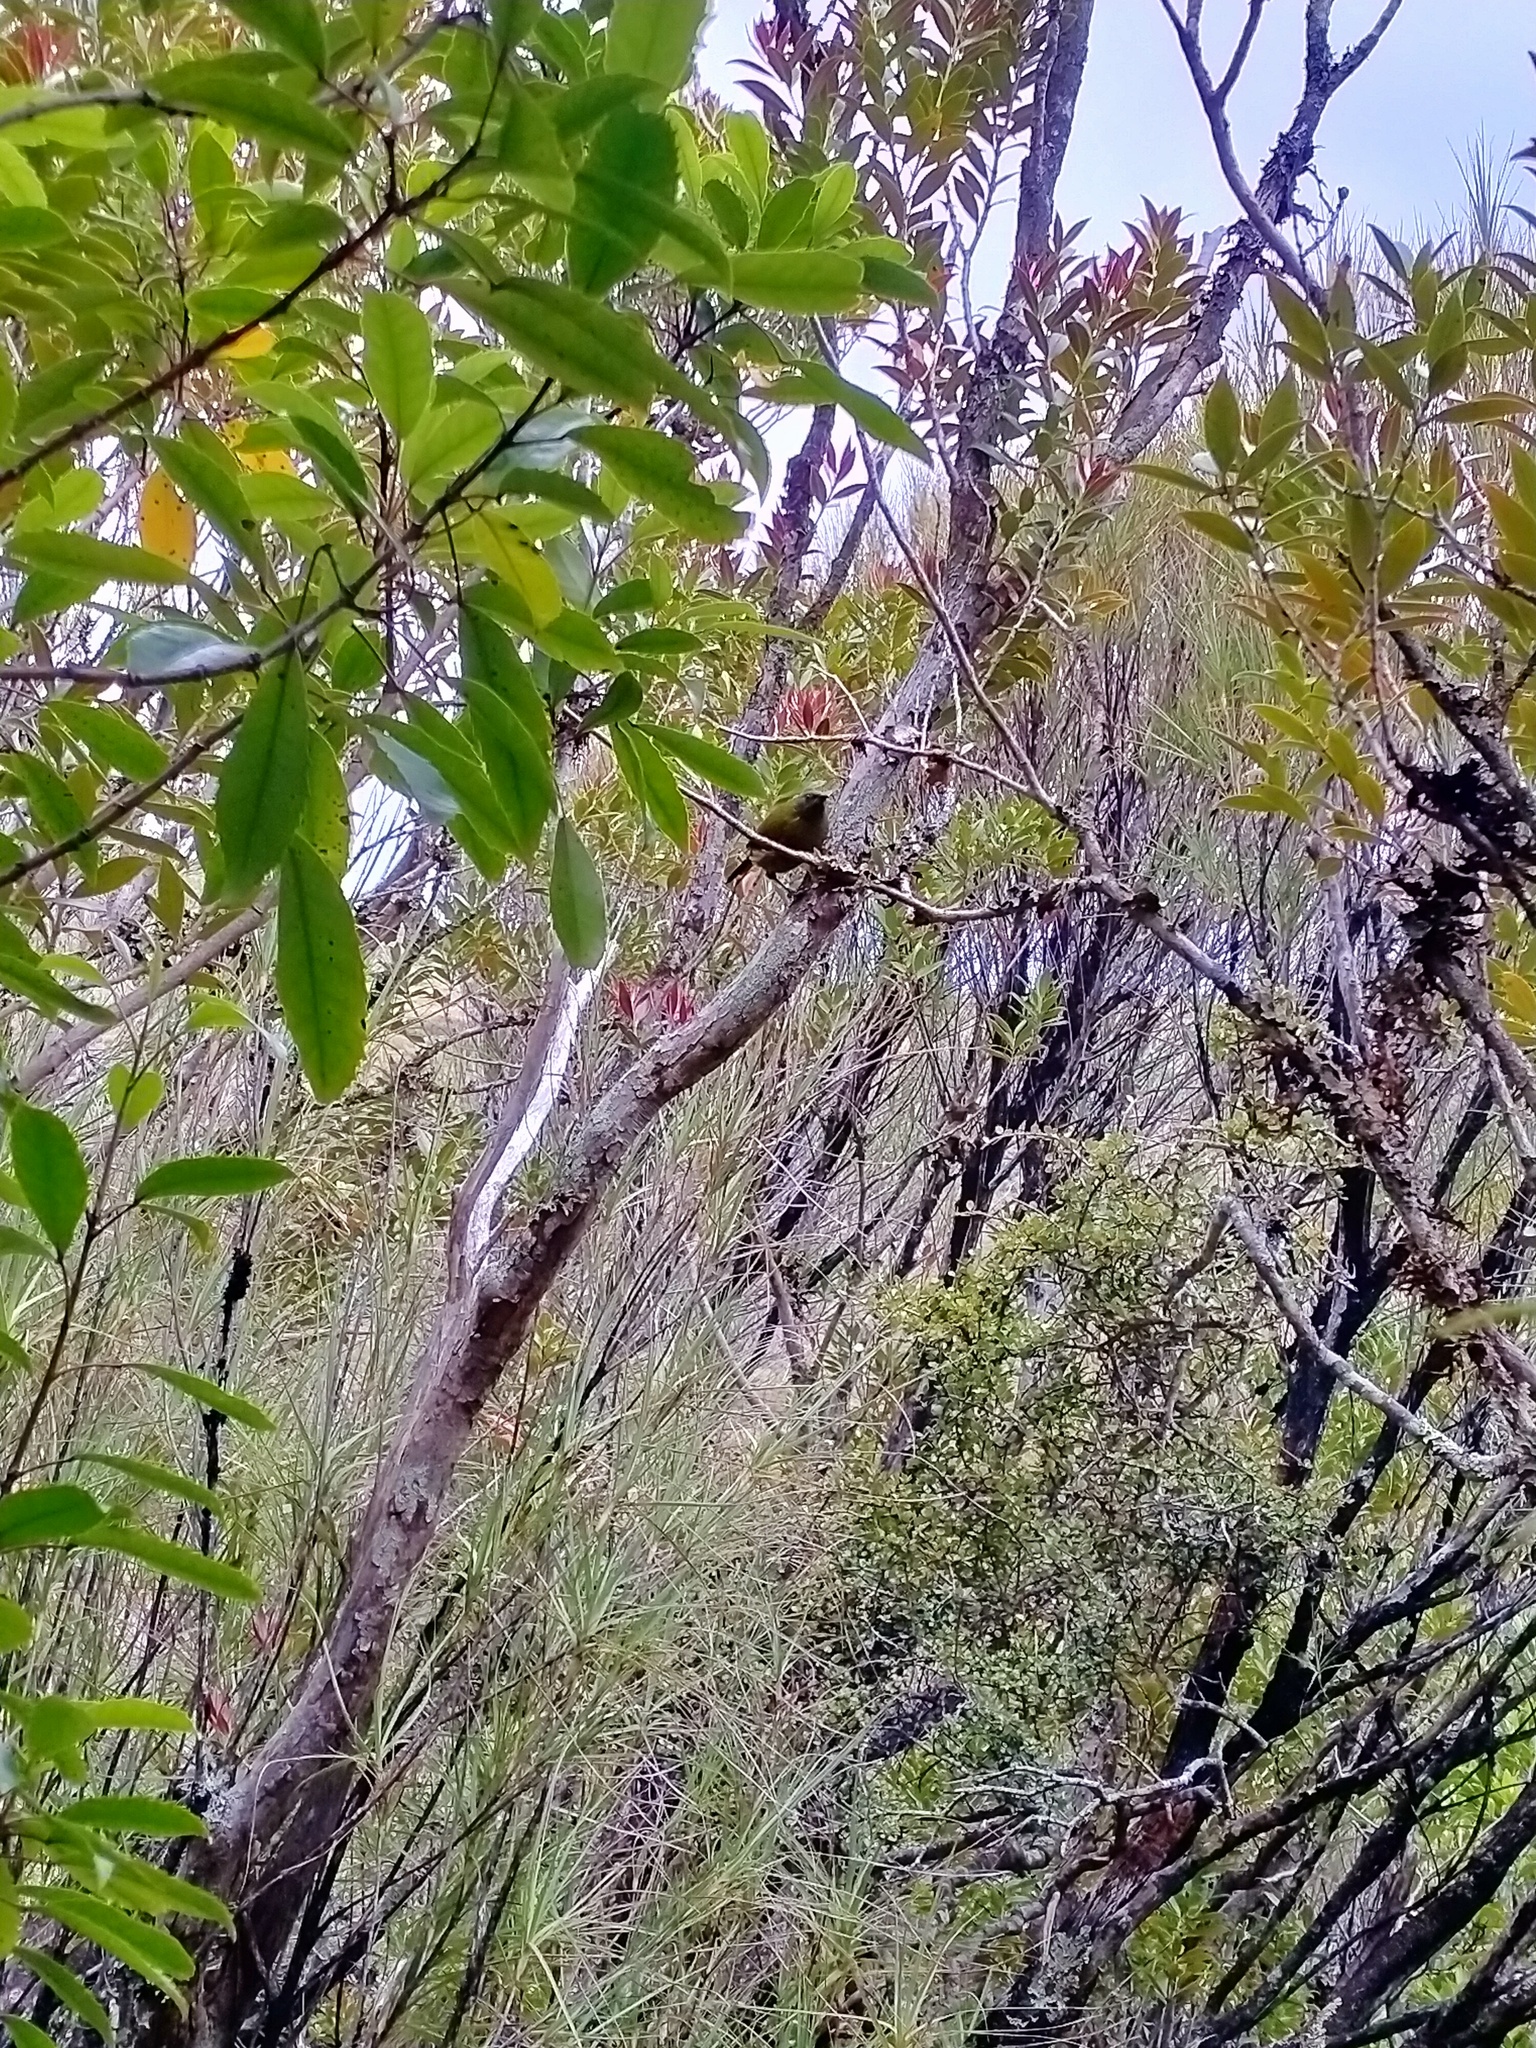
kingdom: Animalia
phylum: Chordata
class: Aves
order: Passeriformes
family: Meliphagidae
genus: Anthornis
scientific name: Anthornis melanura
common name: New zealand bellbird
